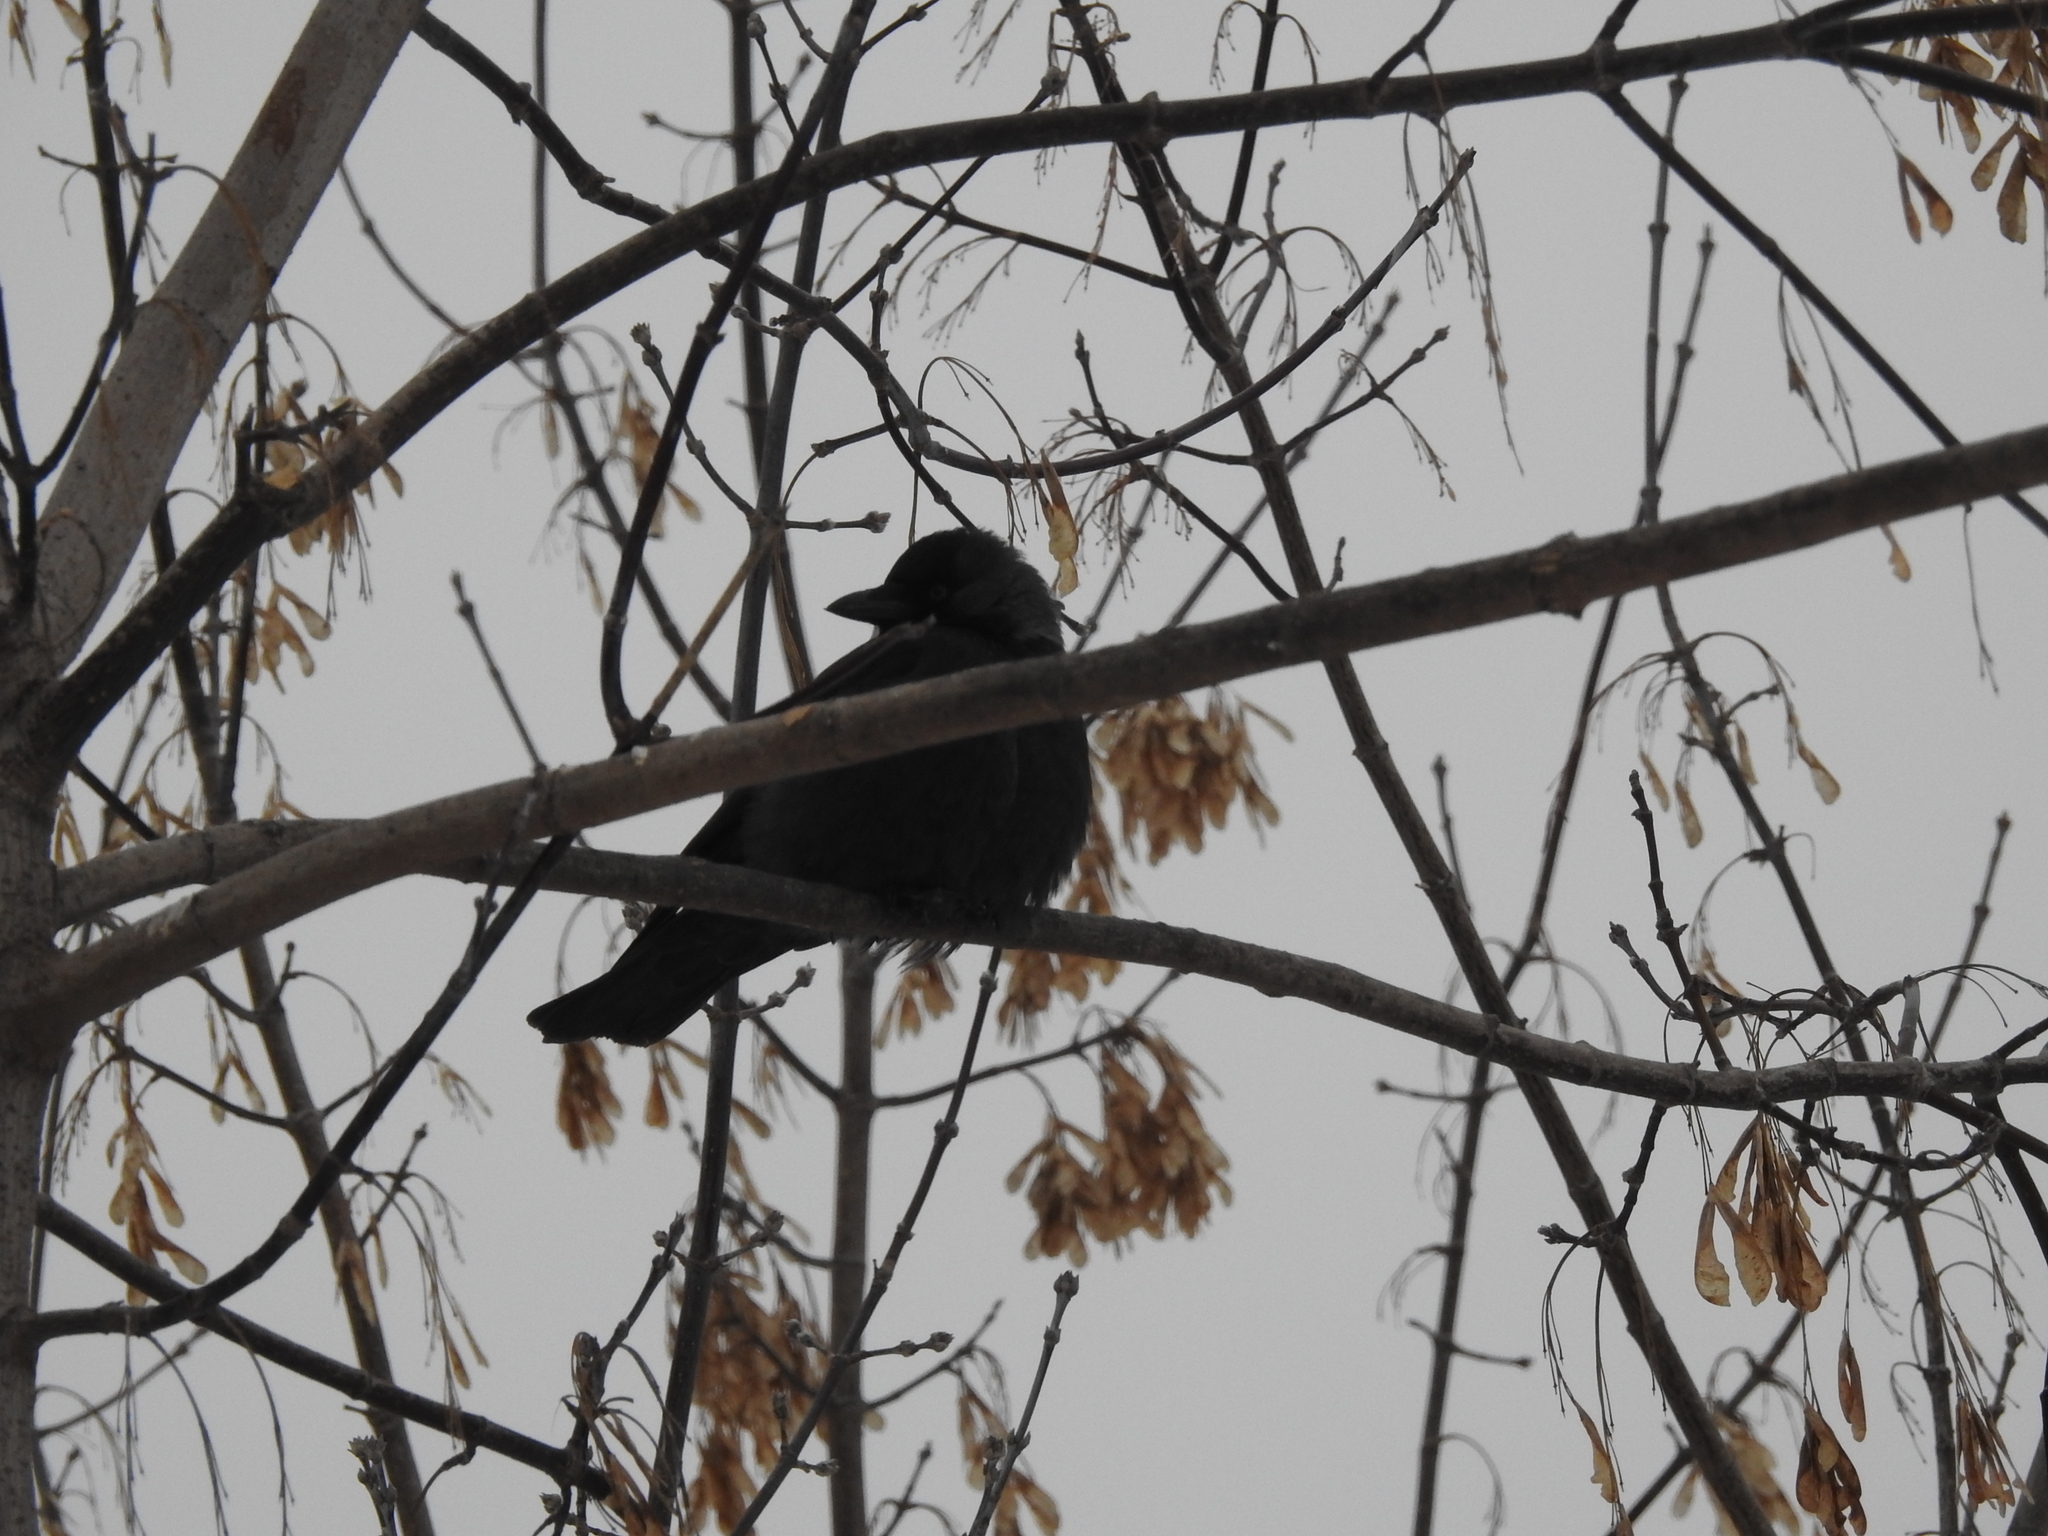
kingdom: Animalia
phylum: Chordata
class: Aves
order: Passeriformes
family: Corvidae
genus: Coloeus
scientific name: Coloeus monedula
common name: Western jackdaw
